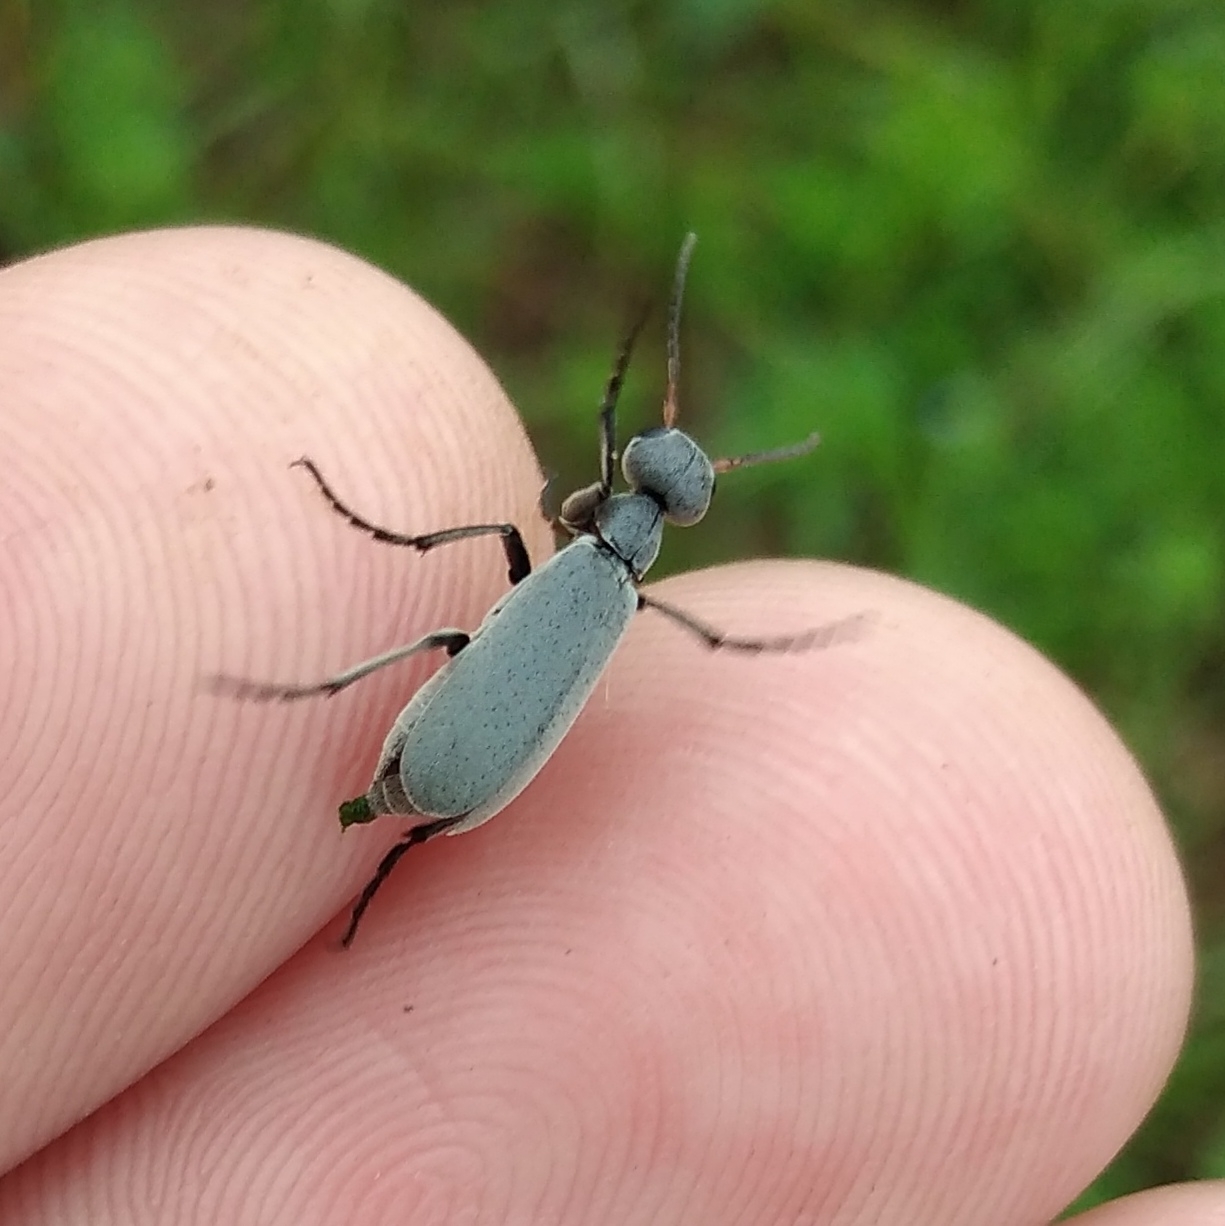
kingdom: Animalia
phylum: Arthropoda
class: Insecta
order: Coleoptera
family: Meloidae
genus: Epicauta
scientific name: Epicauta velata
